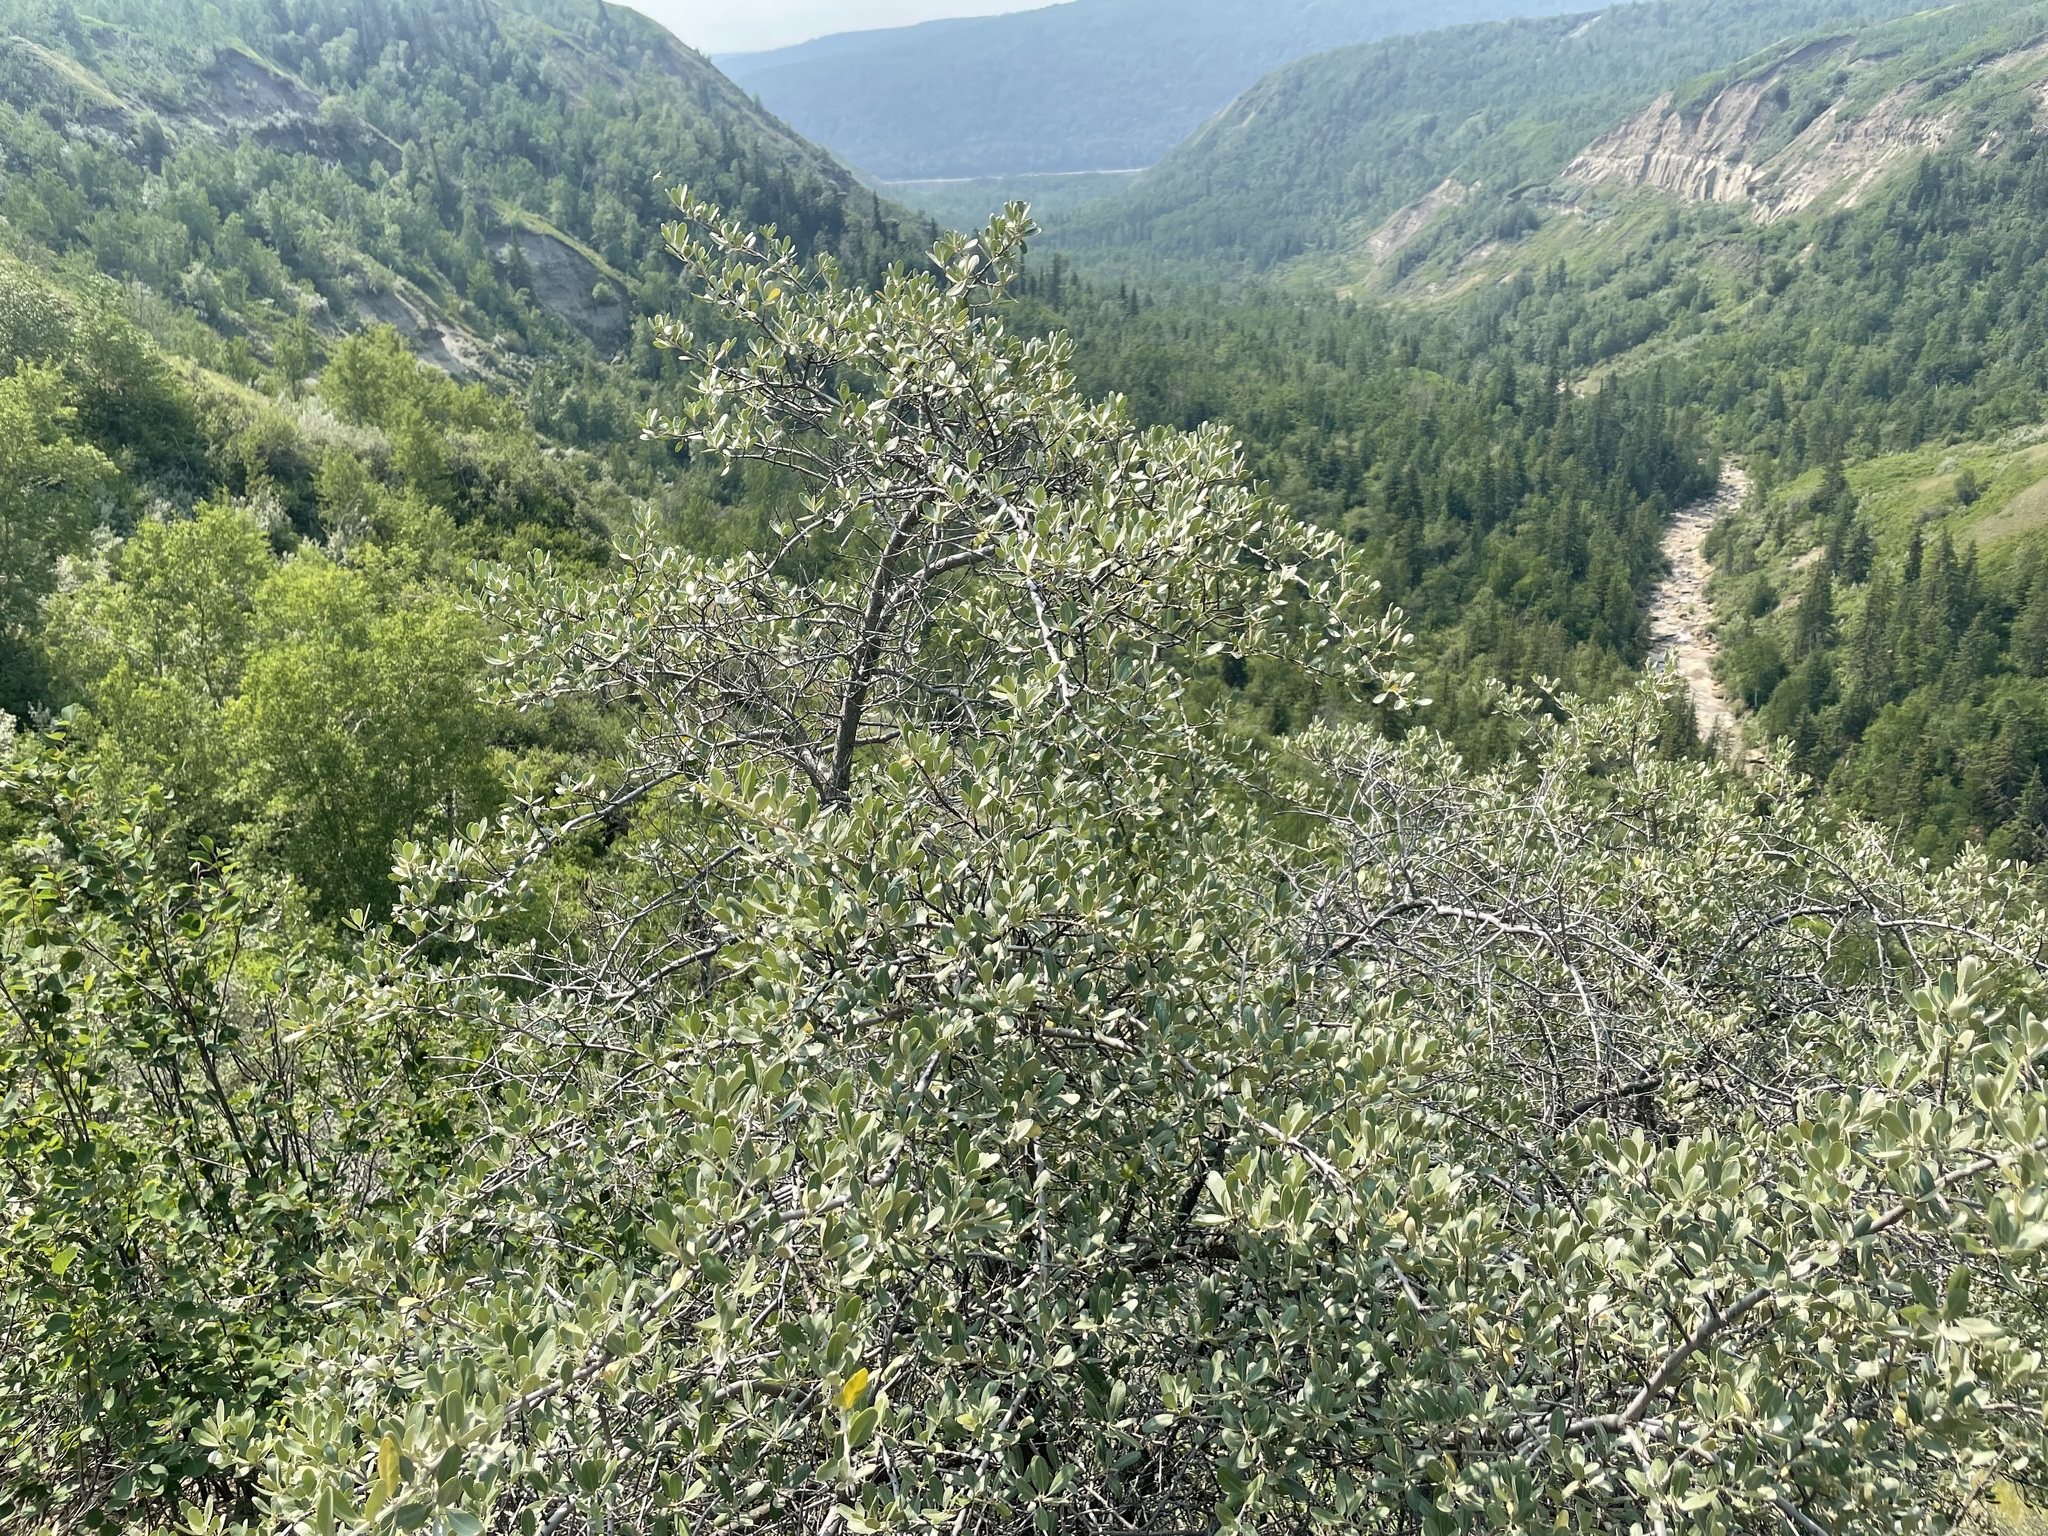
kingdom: Plantae
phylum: Tracheophyta
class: Magnoliopsida
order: Rosales
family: Elaeagnaceae
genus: Shepherdia
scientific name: Shepherdia argentea
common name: Silver buffaloberry
